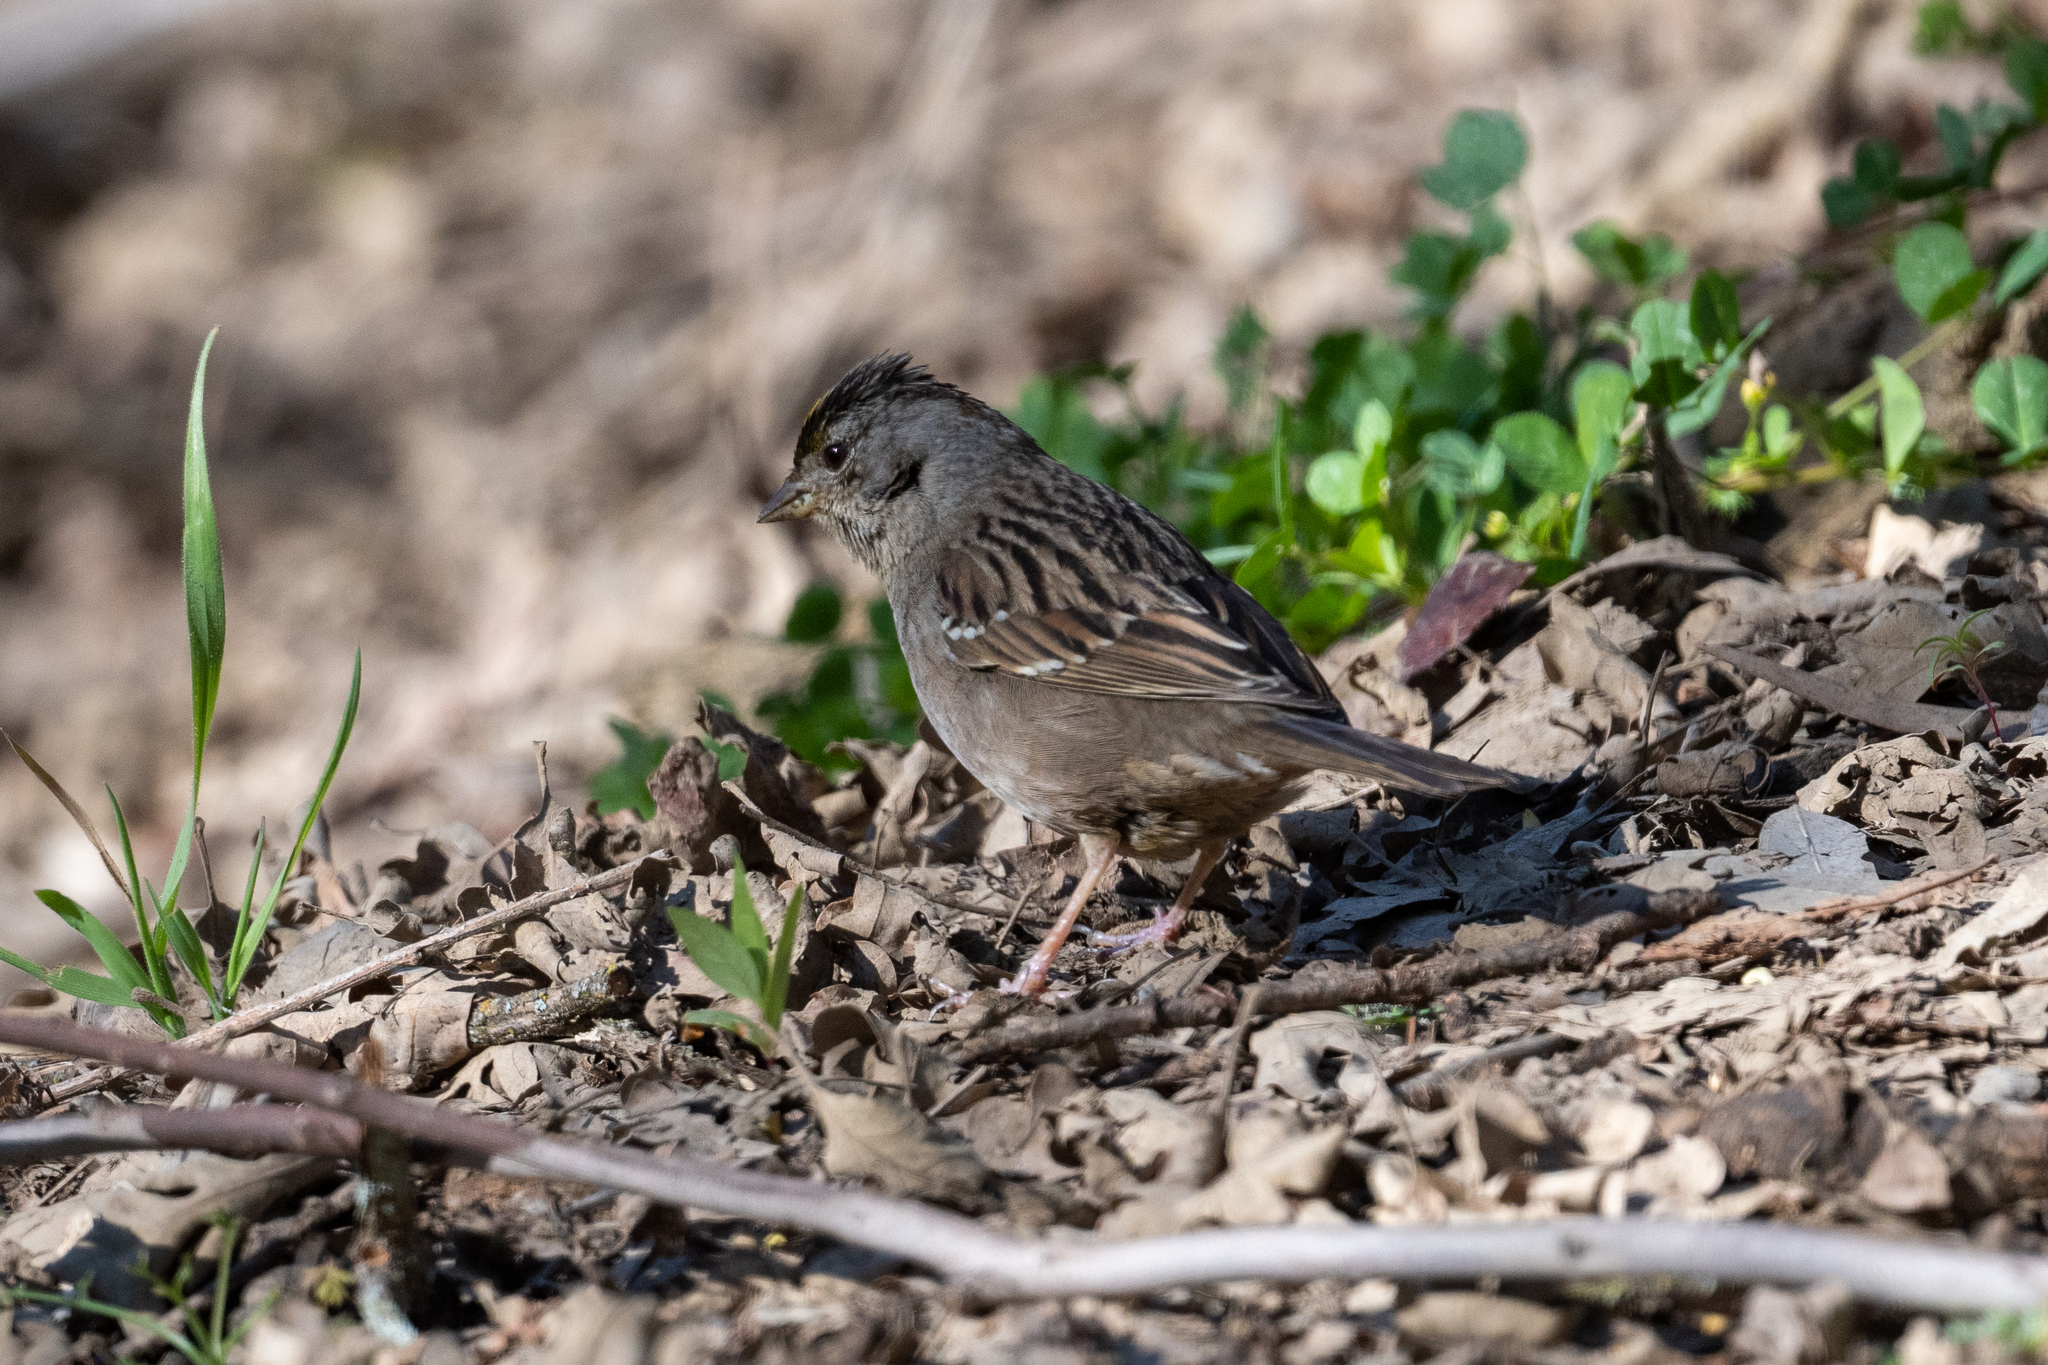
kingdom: Animalia
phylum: Chordata
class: Aves
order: Passeriformes
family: Passerellidae
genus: Zonotrichia
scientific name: Zonotrichia atricapilla
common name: Golden-crowned sparrow
